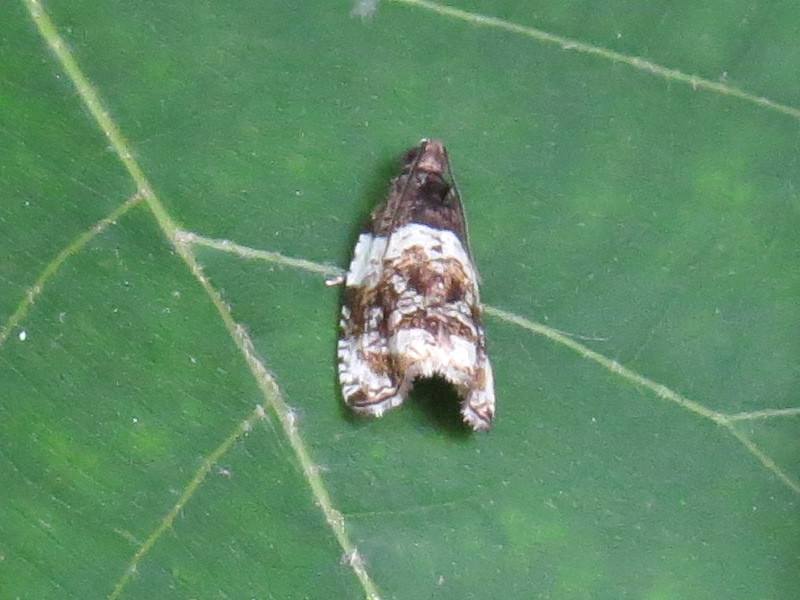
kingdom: Animalia
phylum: Arthropoda
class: Insecta
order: Lepidoptera
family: Tortricidae
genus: Olethreutes
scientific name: Olethreutes fasciatana
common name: Banded olethreutes moth
